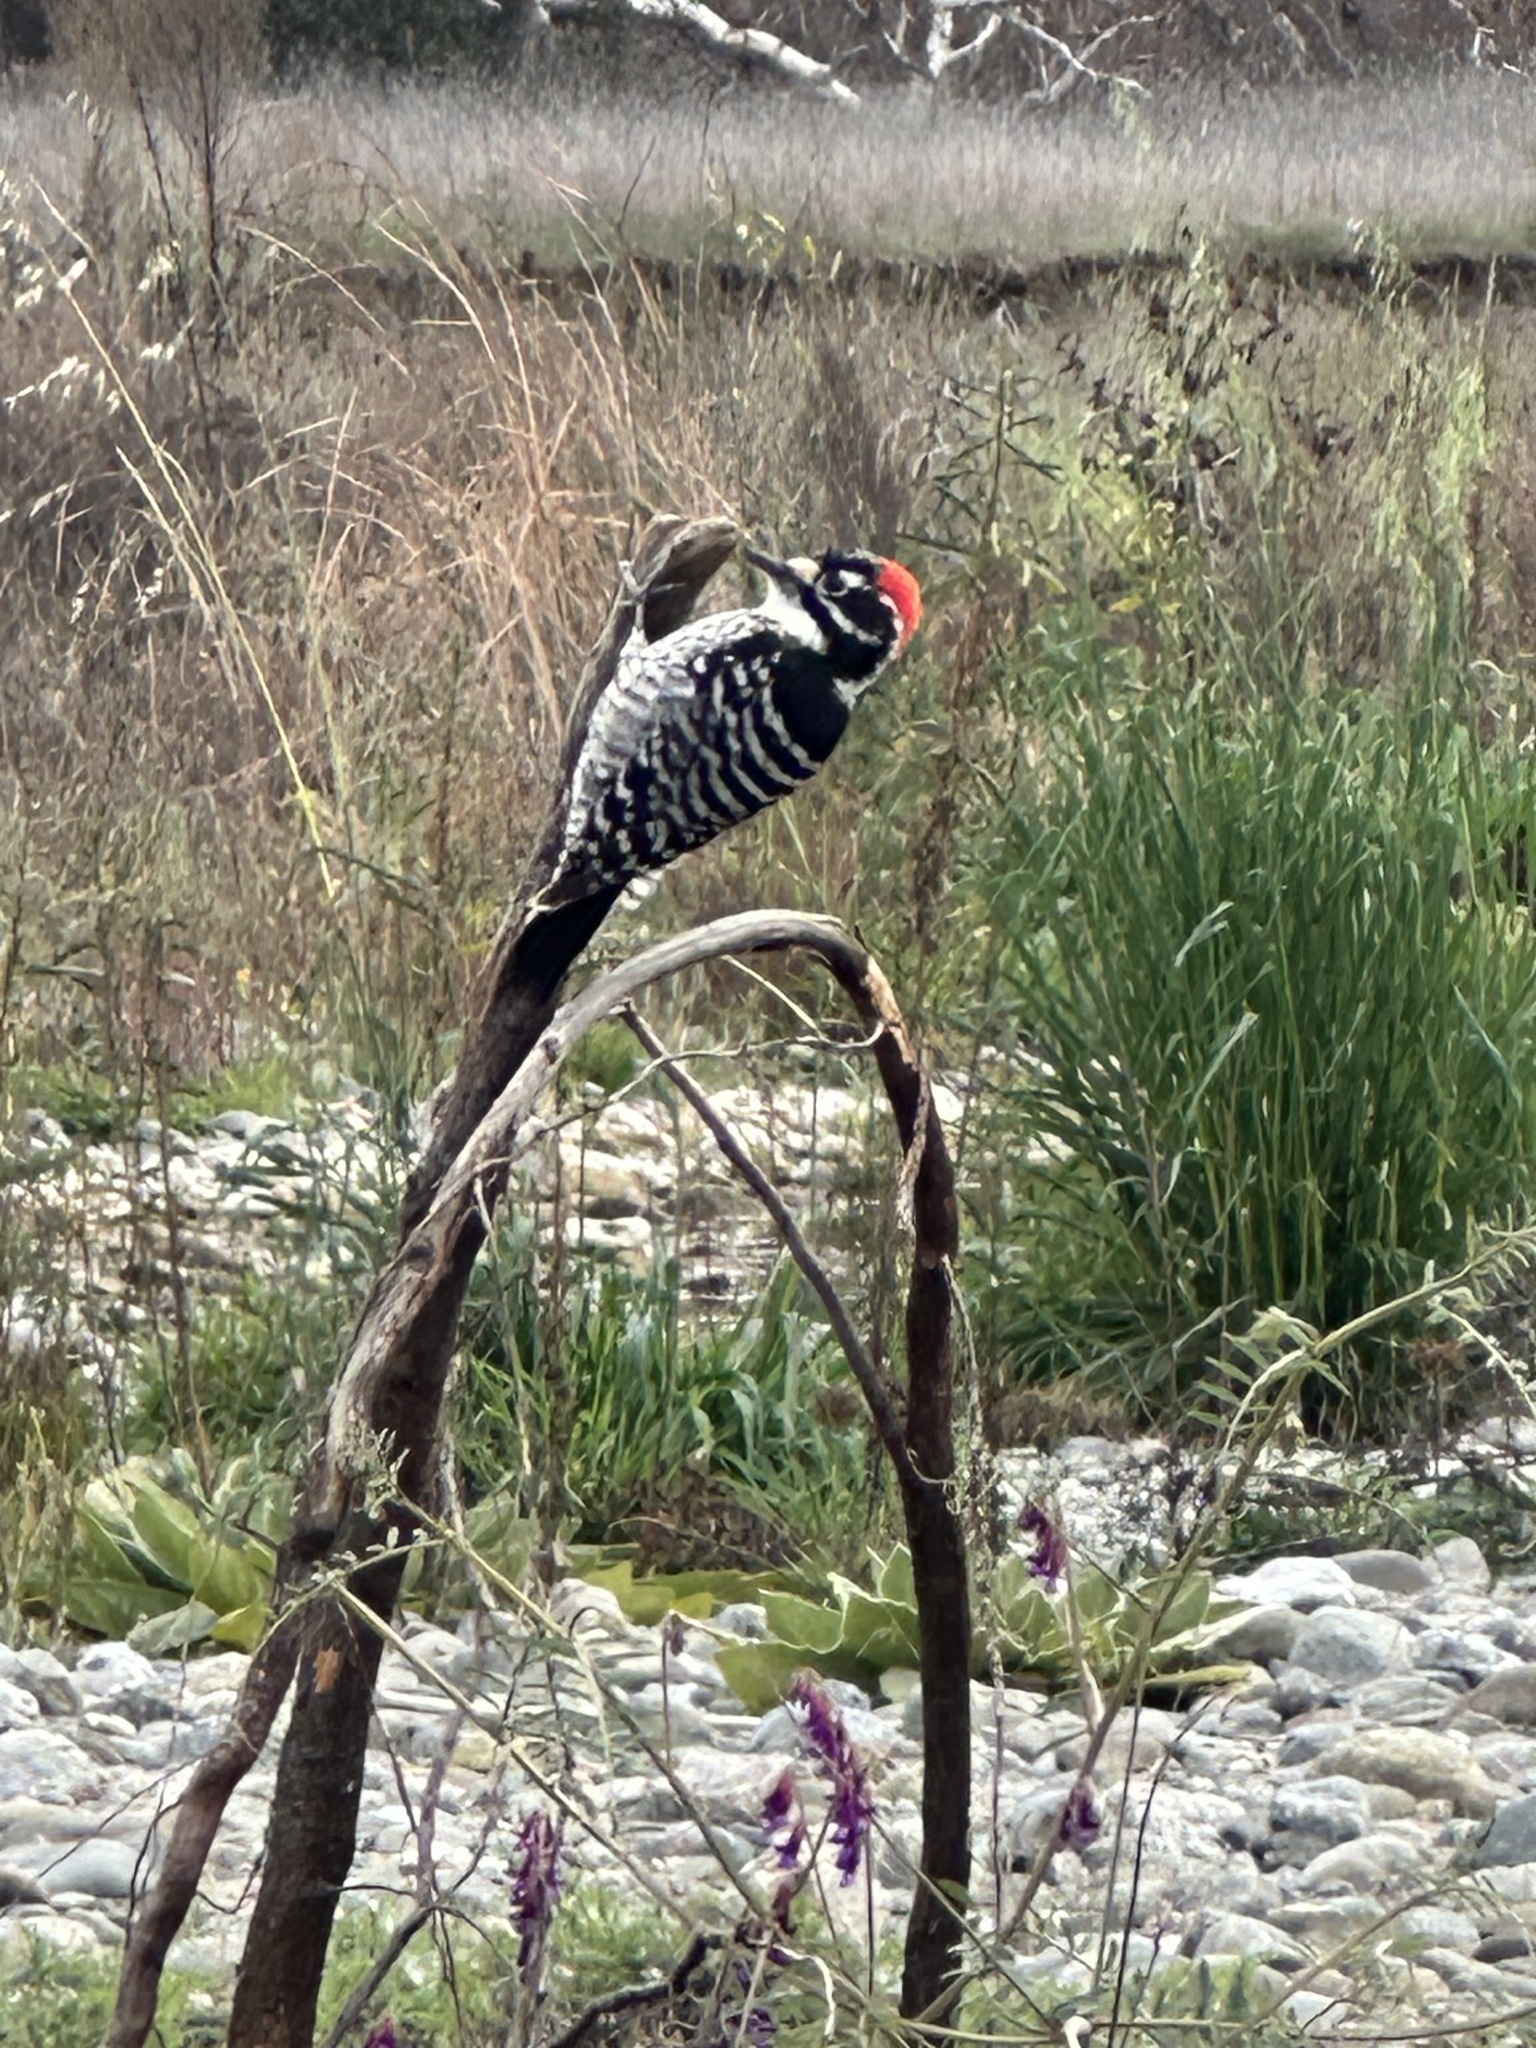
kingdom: Animalia
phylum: Chordata
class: Aves
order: Piciformes
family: Picidae
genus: Dryobates
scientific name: Dryobates nuttallii
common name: Nuttall's woodpecker
